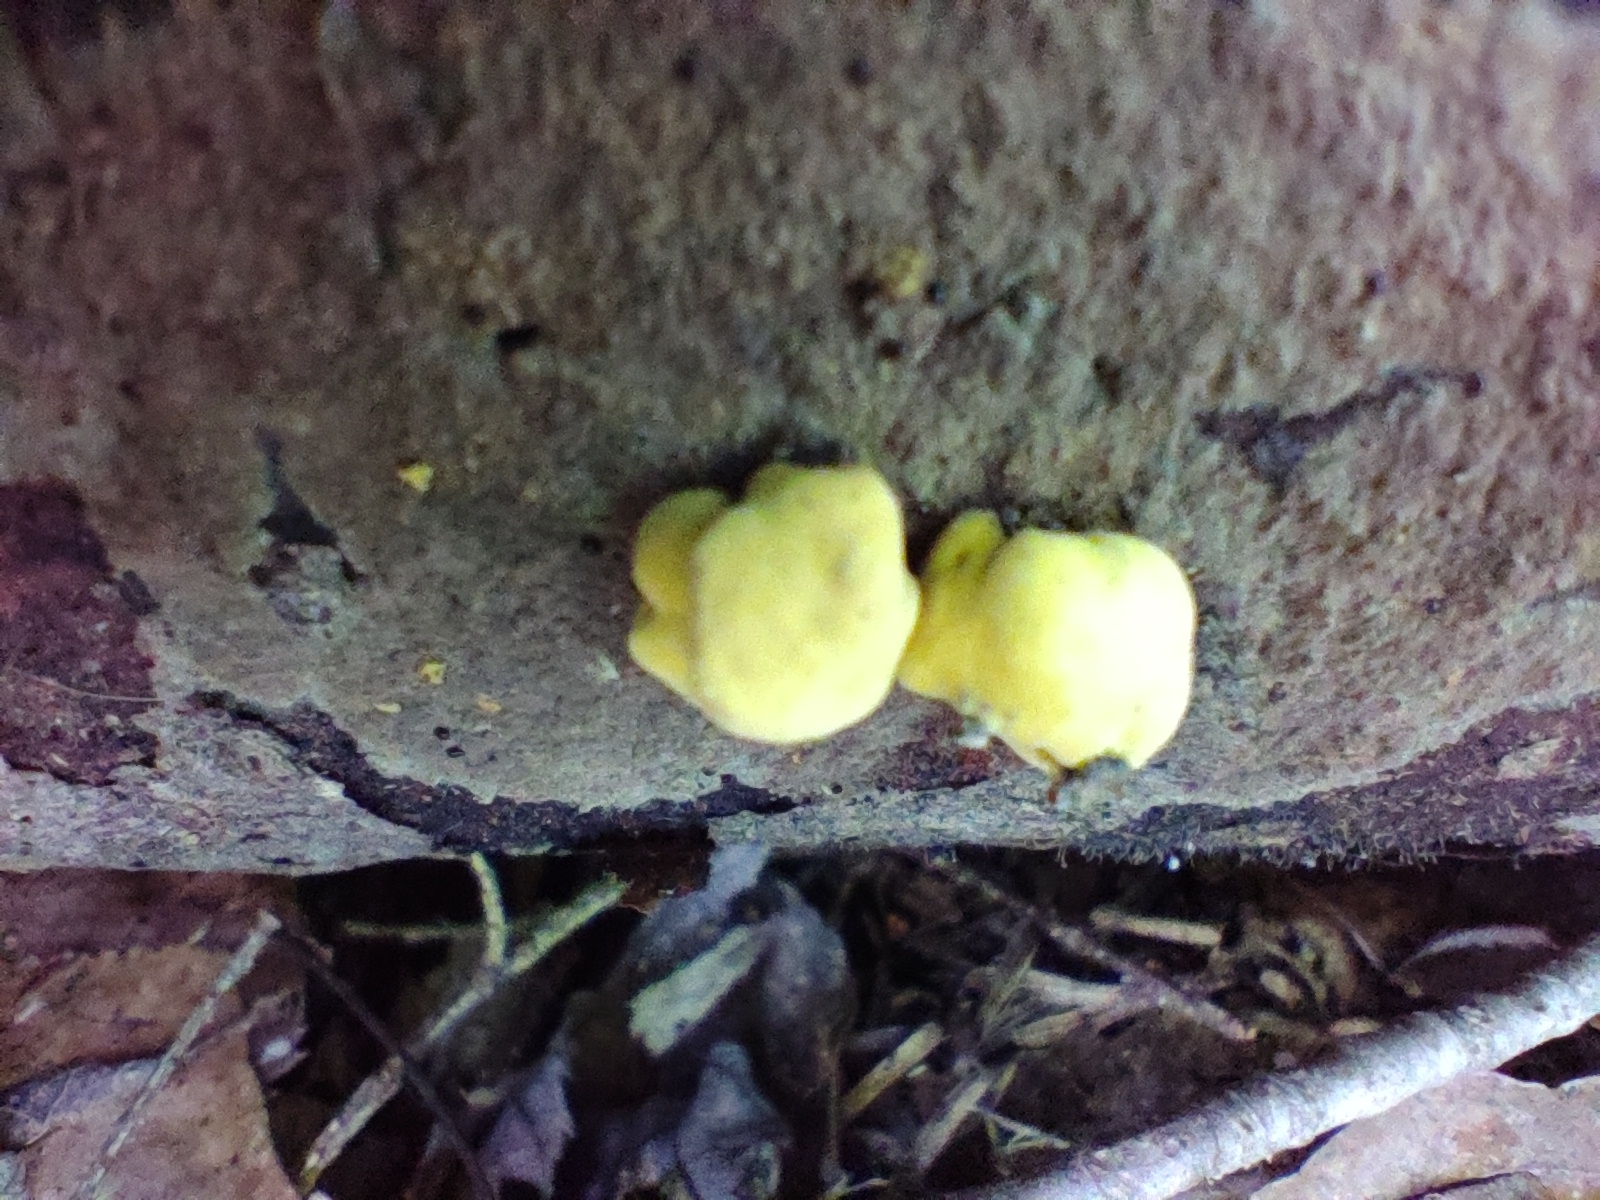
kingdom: Fungi
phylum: Ascomycota
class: Sordariomycetes
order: Xylariales
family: Hypoxylaceae
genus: Thuemenella
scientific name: Thuemenella cubispora
